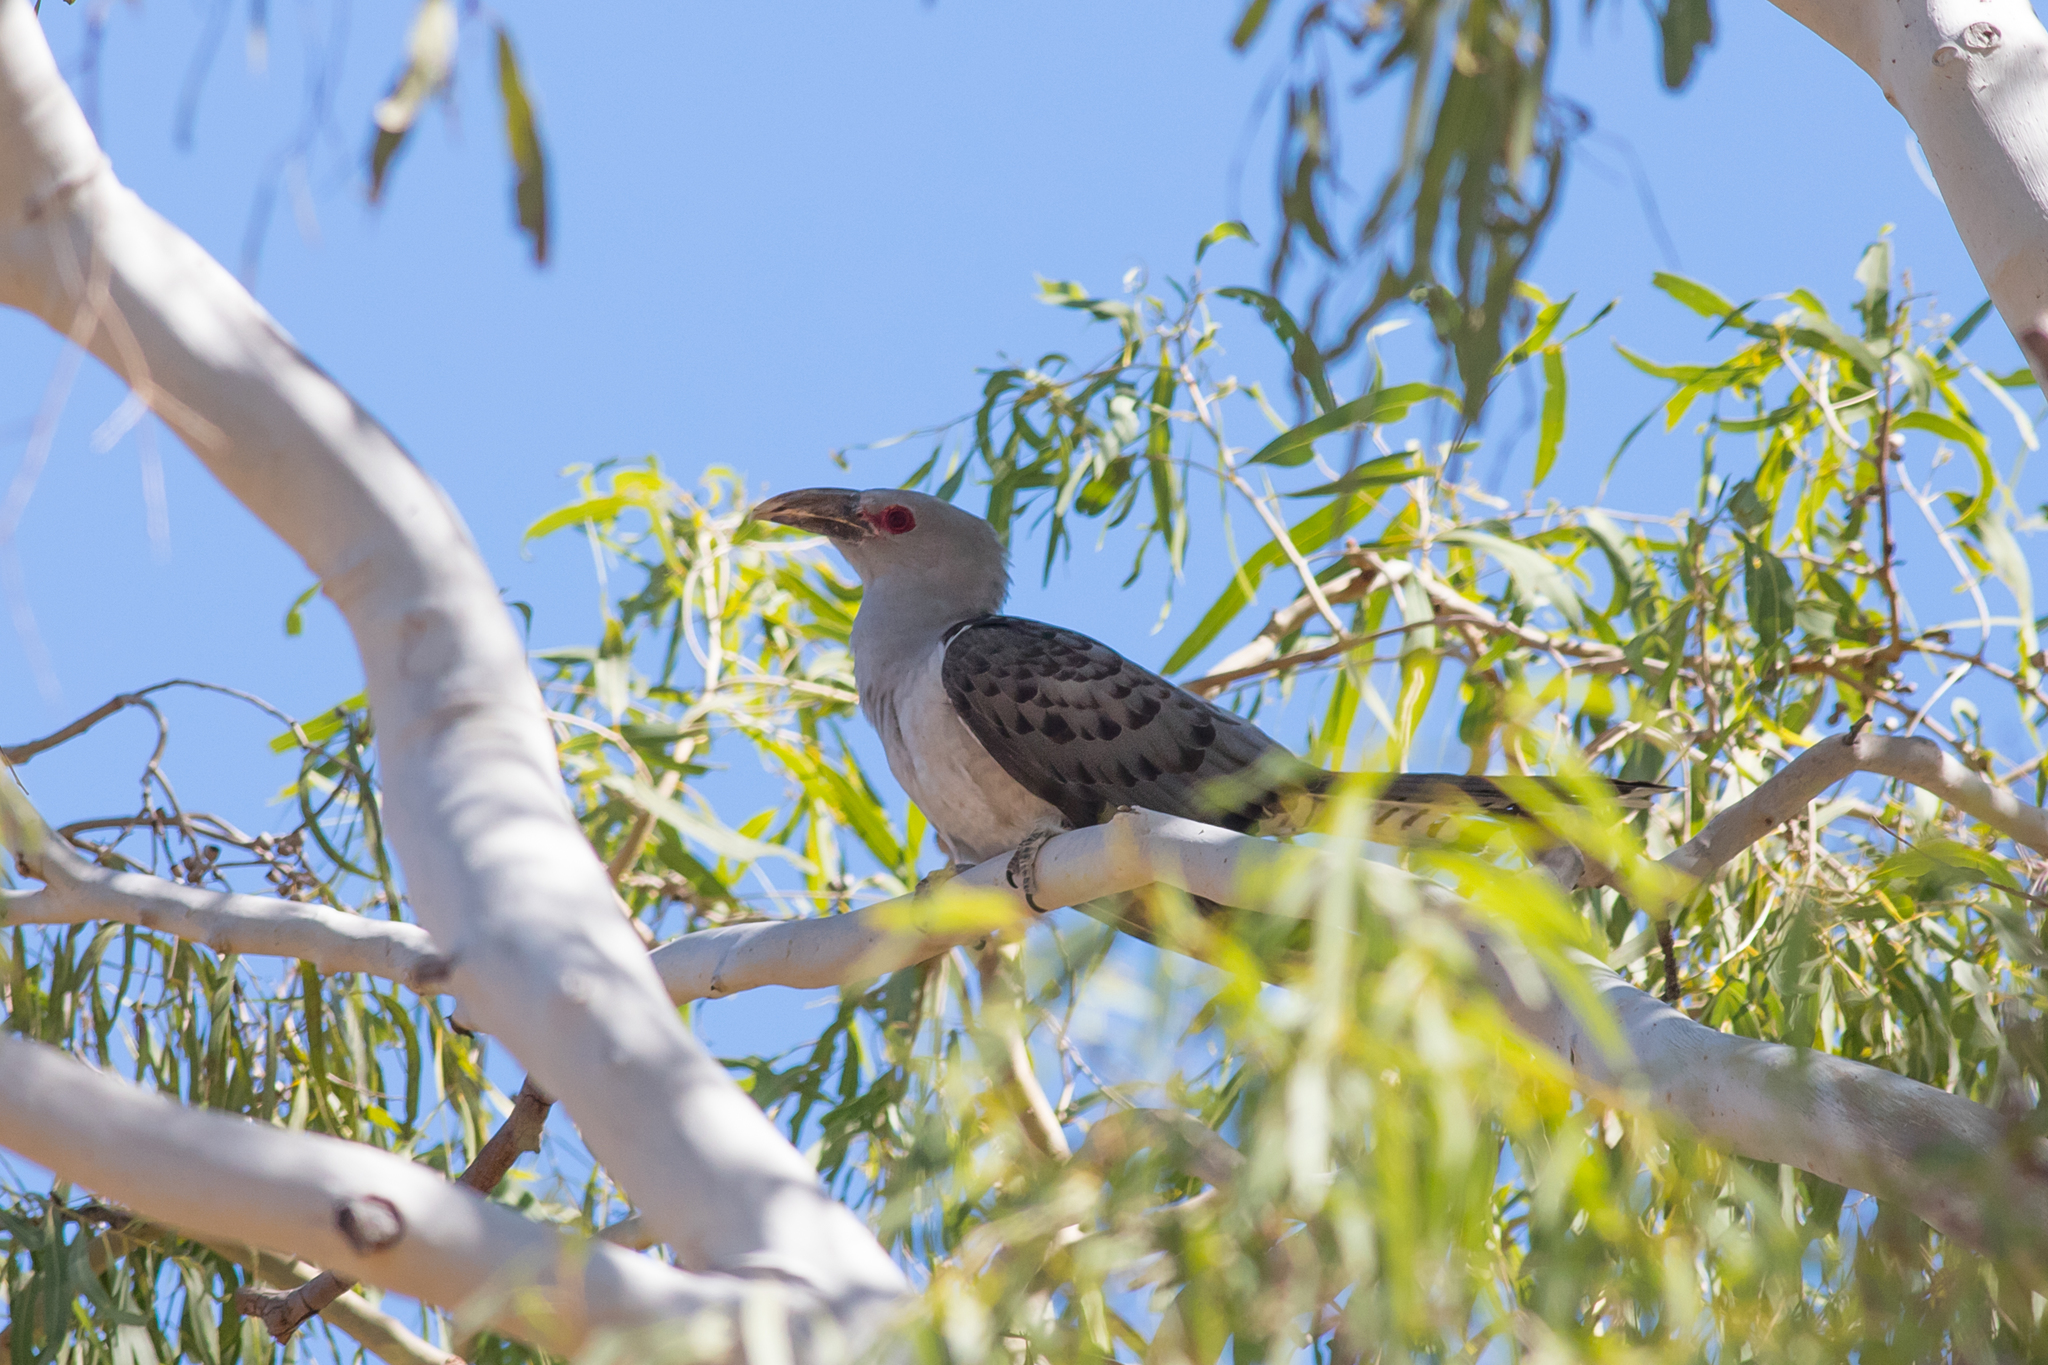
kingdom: Animalia
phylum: Chordata
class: Aves
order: Cuculiformes
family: Cuculidae
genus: Scythrops
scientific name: Scythrops novaehollandiae
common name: Channel-billed cuckoo
